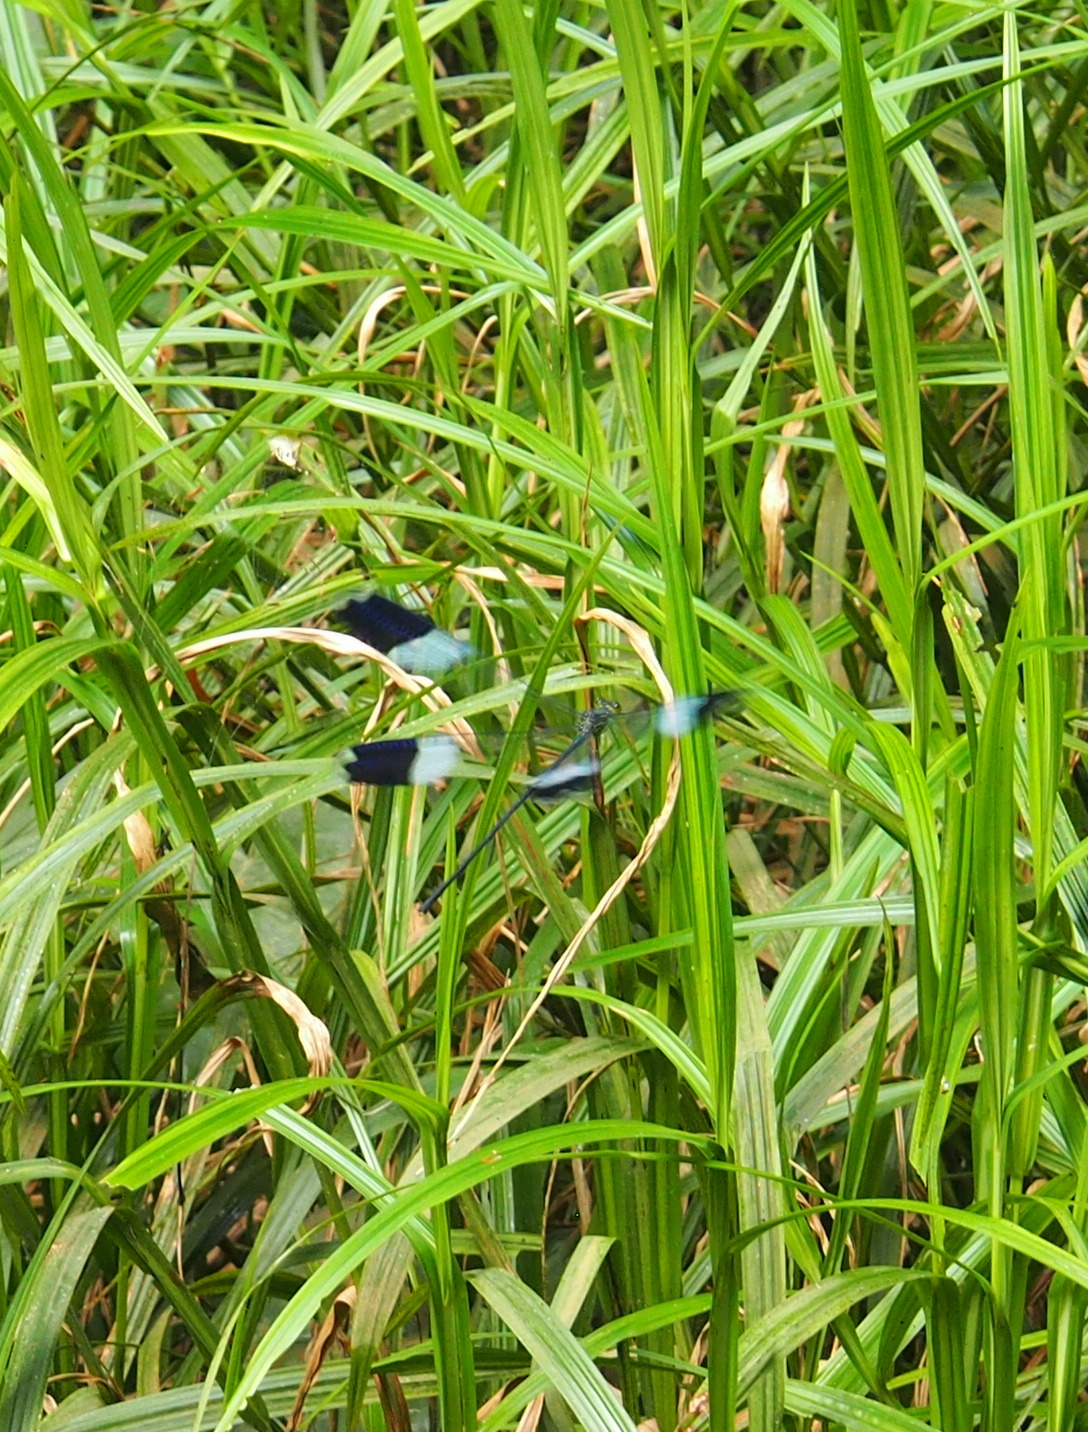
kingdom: Animalia
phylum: Arthropoda
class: Insecta
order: Odonata
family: Coenagrionidae
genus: Megaloprepus
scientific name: Megaloprepus caerulatus
